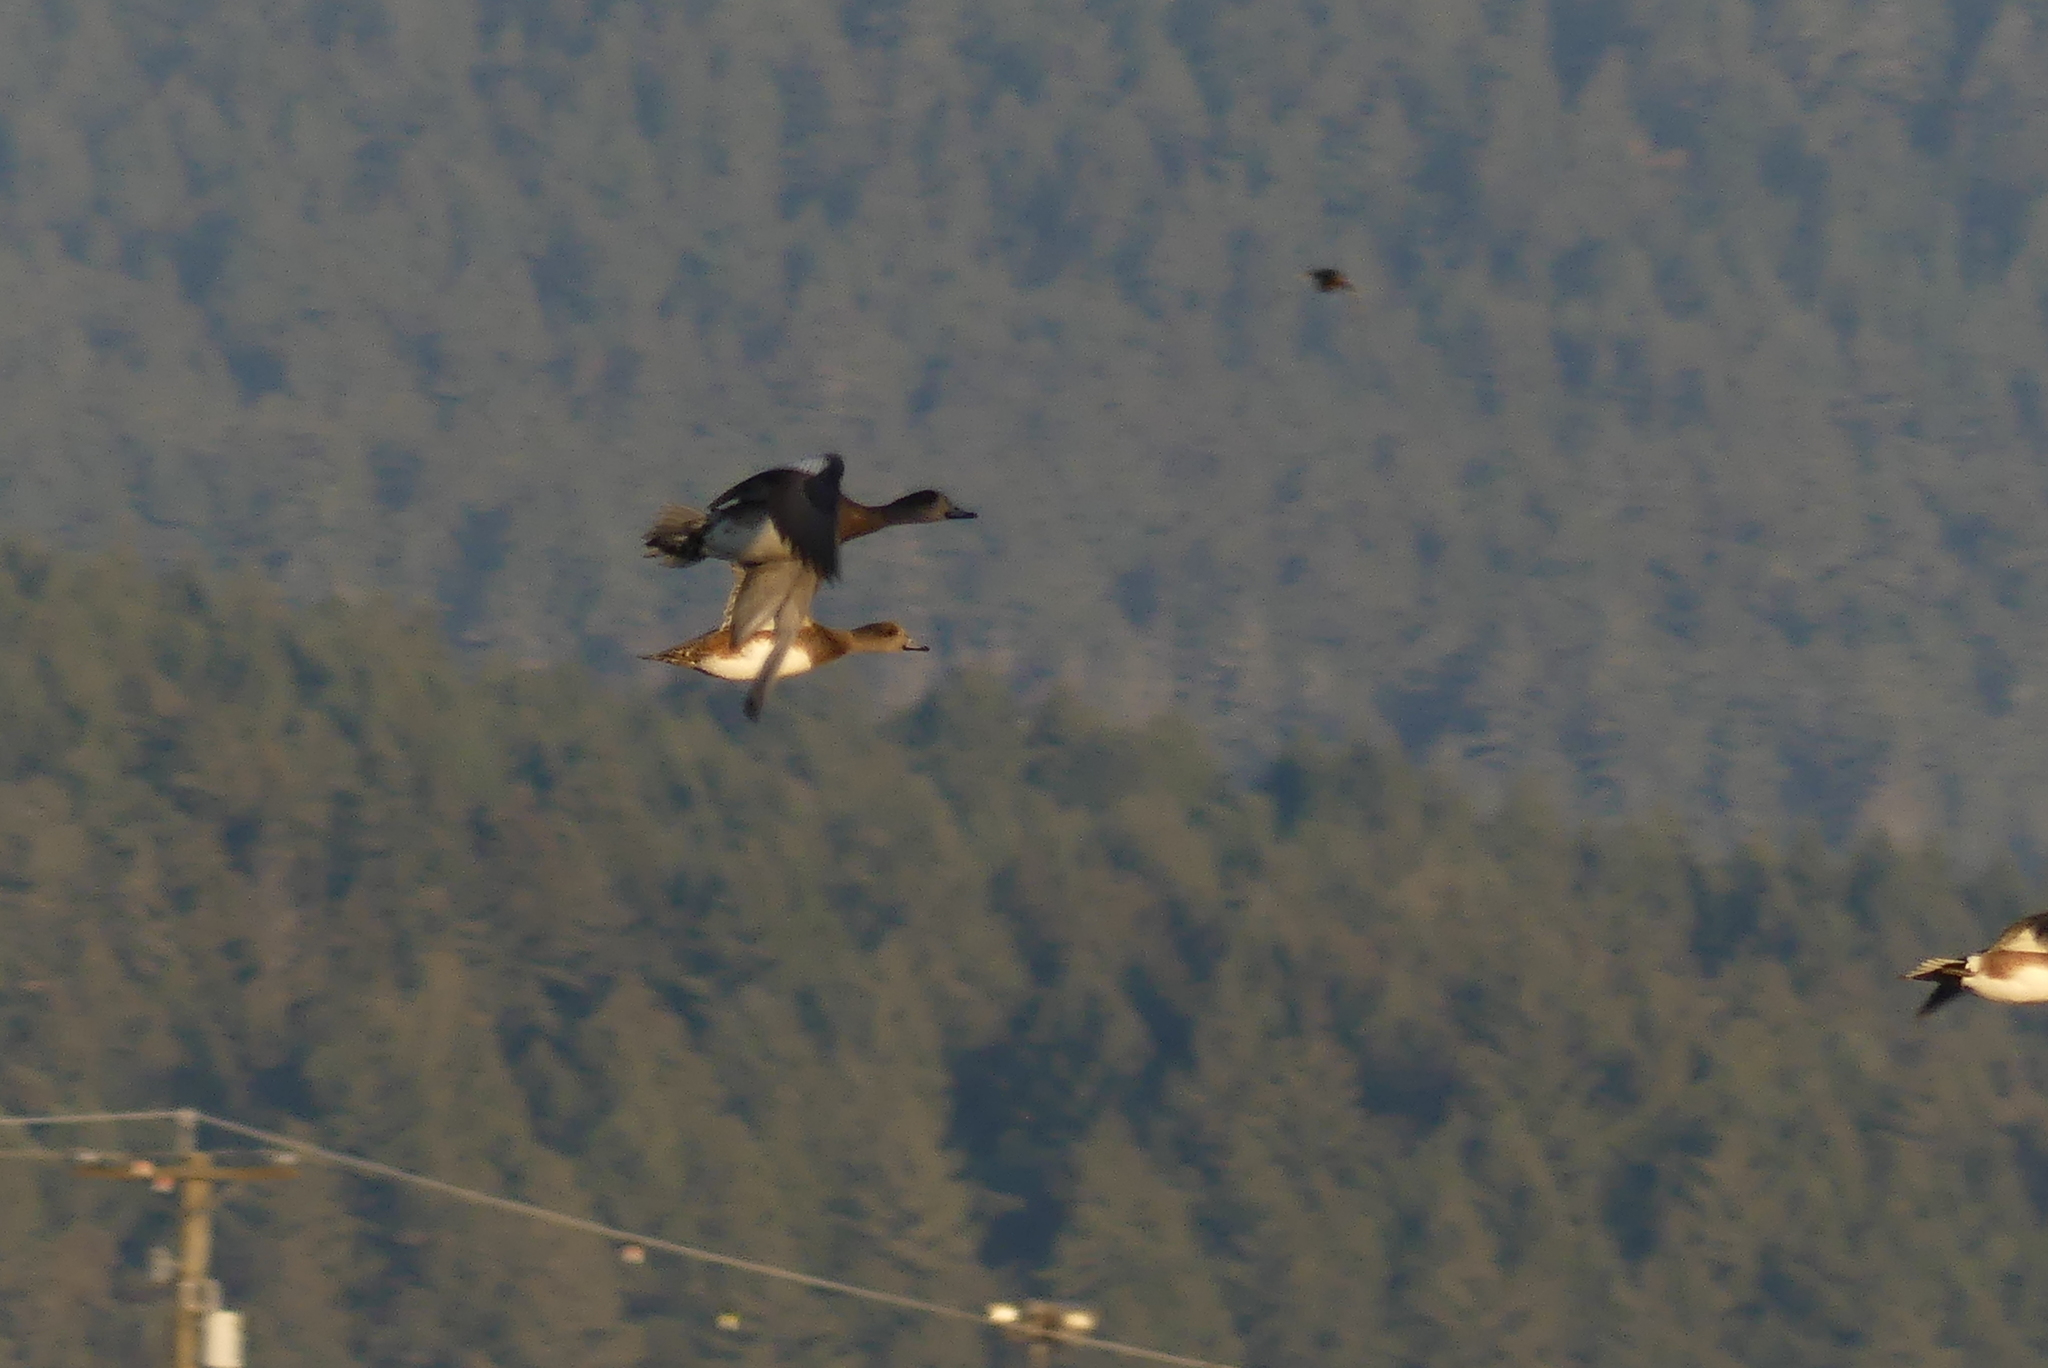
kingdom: Animalia
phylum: Chordata
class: Aves
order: Anseriformes
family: Anatidae
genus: Mareca
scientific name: Mareca americana
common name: American wigeon
